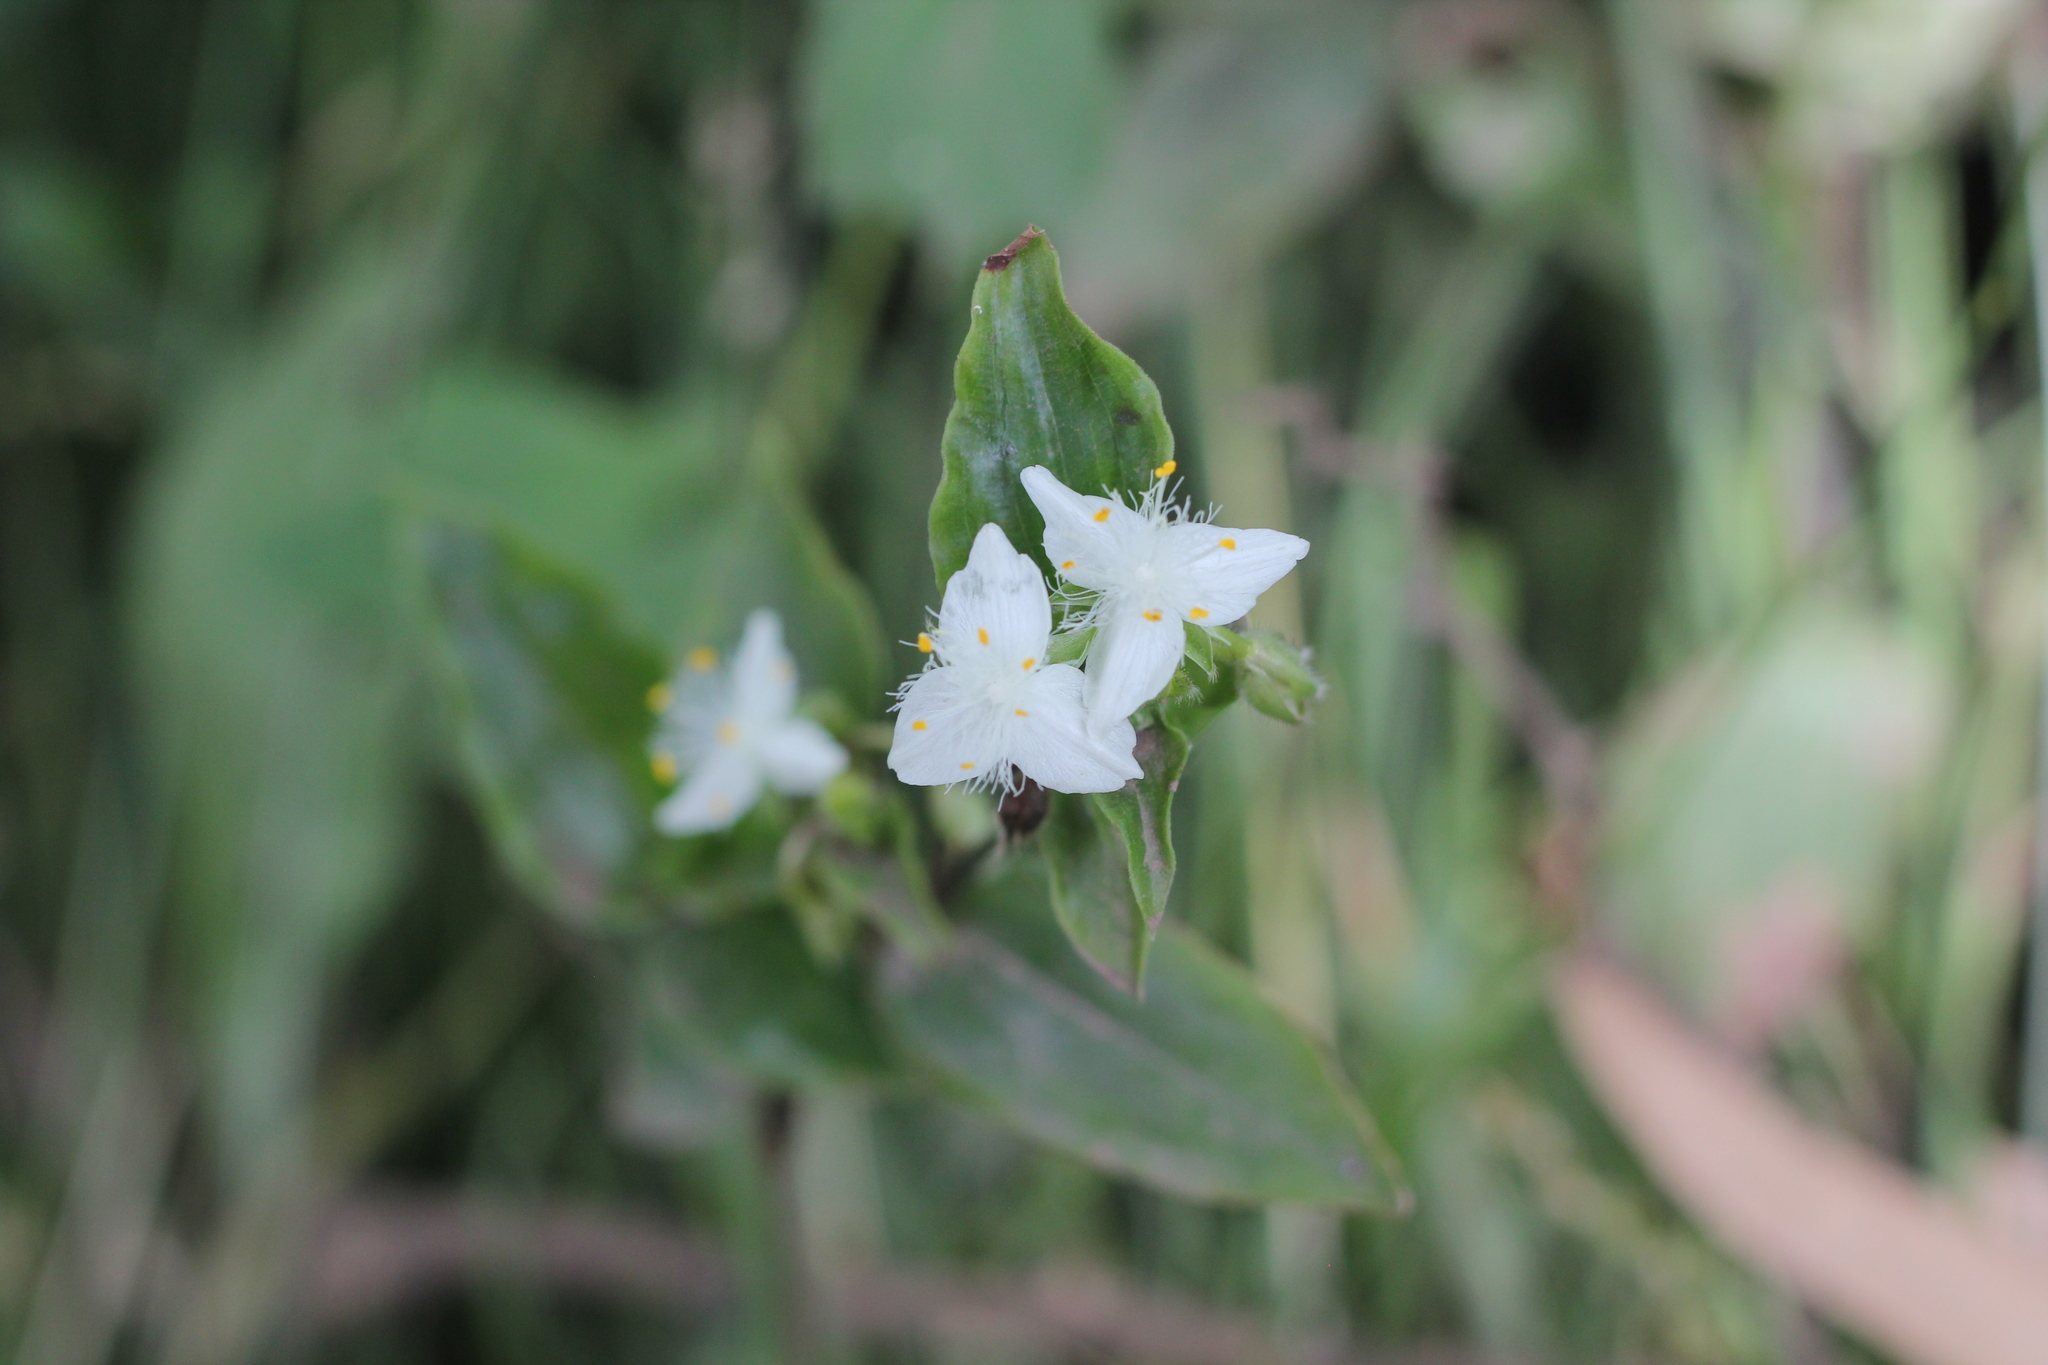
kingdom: Plantae
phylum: Tracheophyta
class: Liliopsida
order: Commelinales
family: Commelinaceae
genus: Tradescantia
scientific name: Tradescantia fluminensis
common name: Wandering-jew
